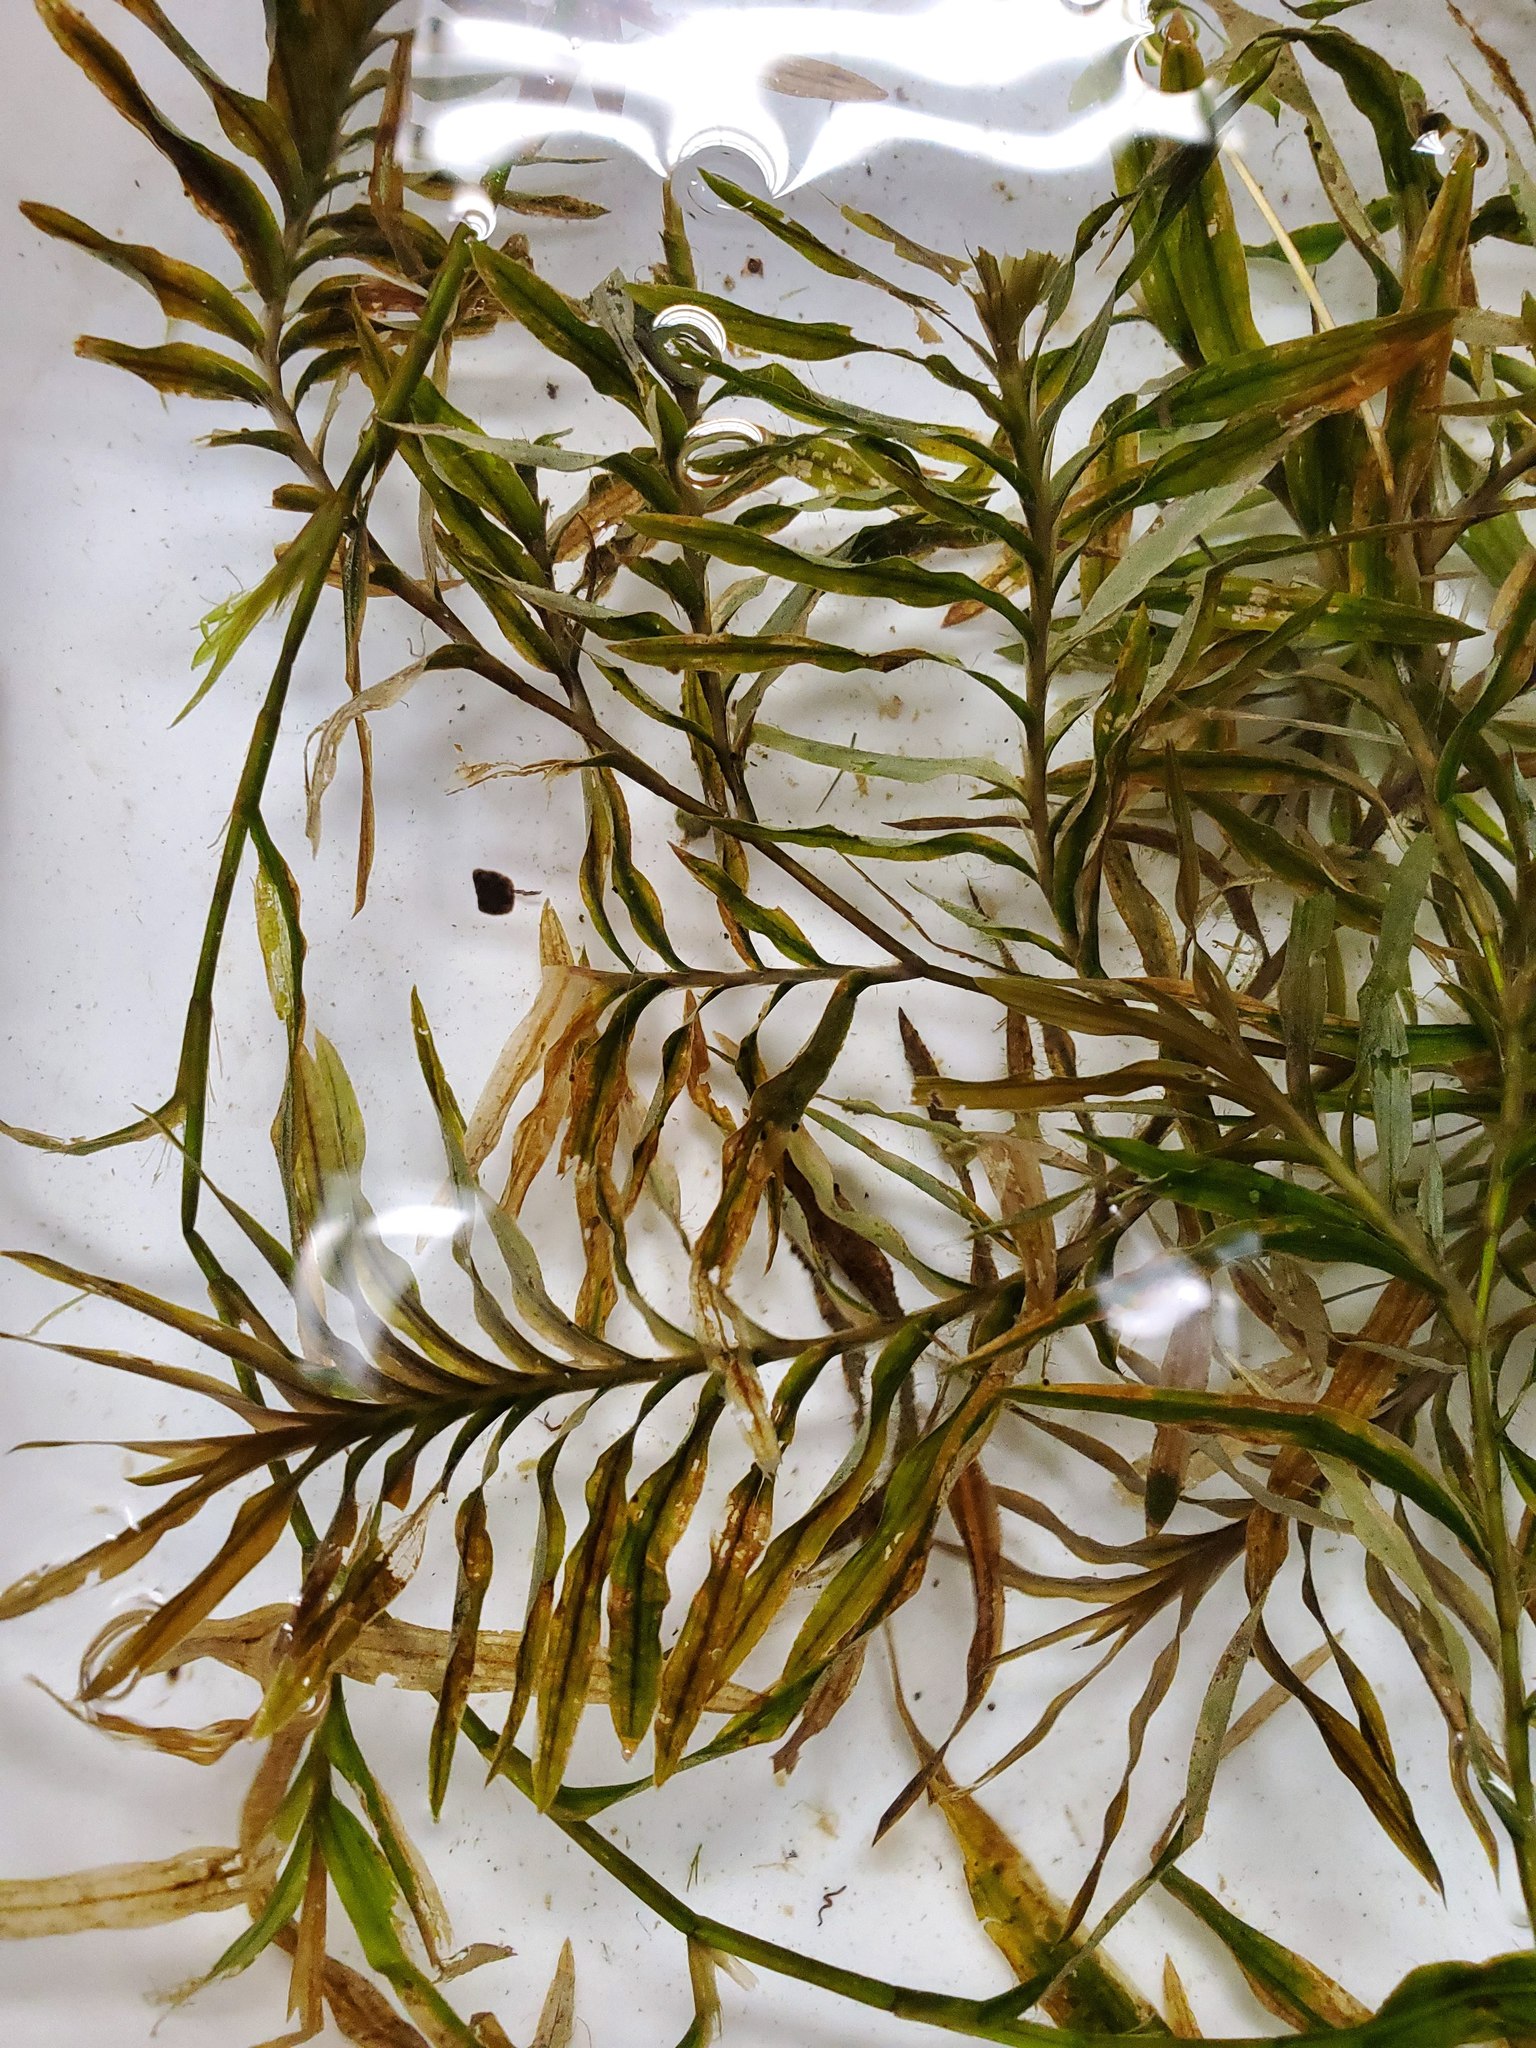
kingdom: Plantae
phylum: Tracheophyta
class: Liliopsida
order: Alismatales
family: Potamogetonaceae
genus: Potamogeton
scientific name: Potamogeton robbinsii
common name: Fern pondweed
